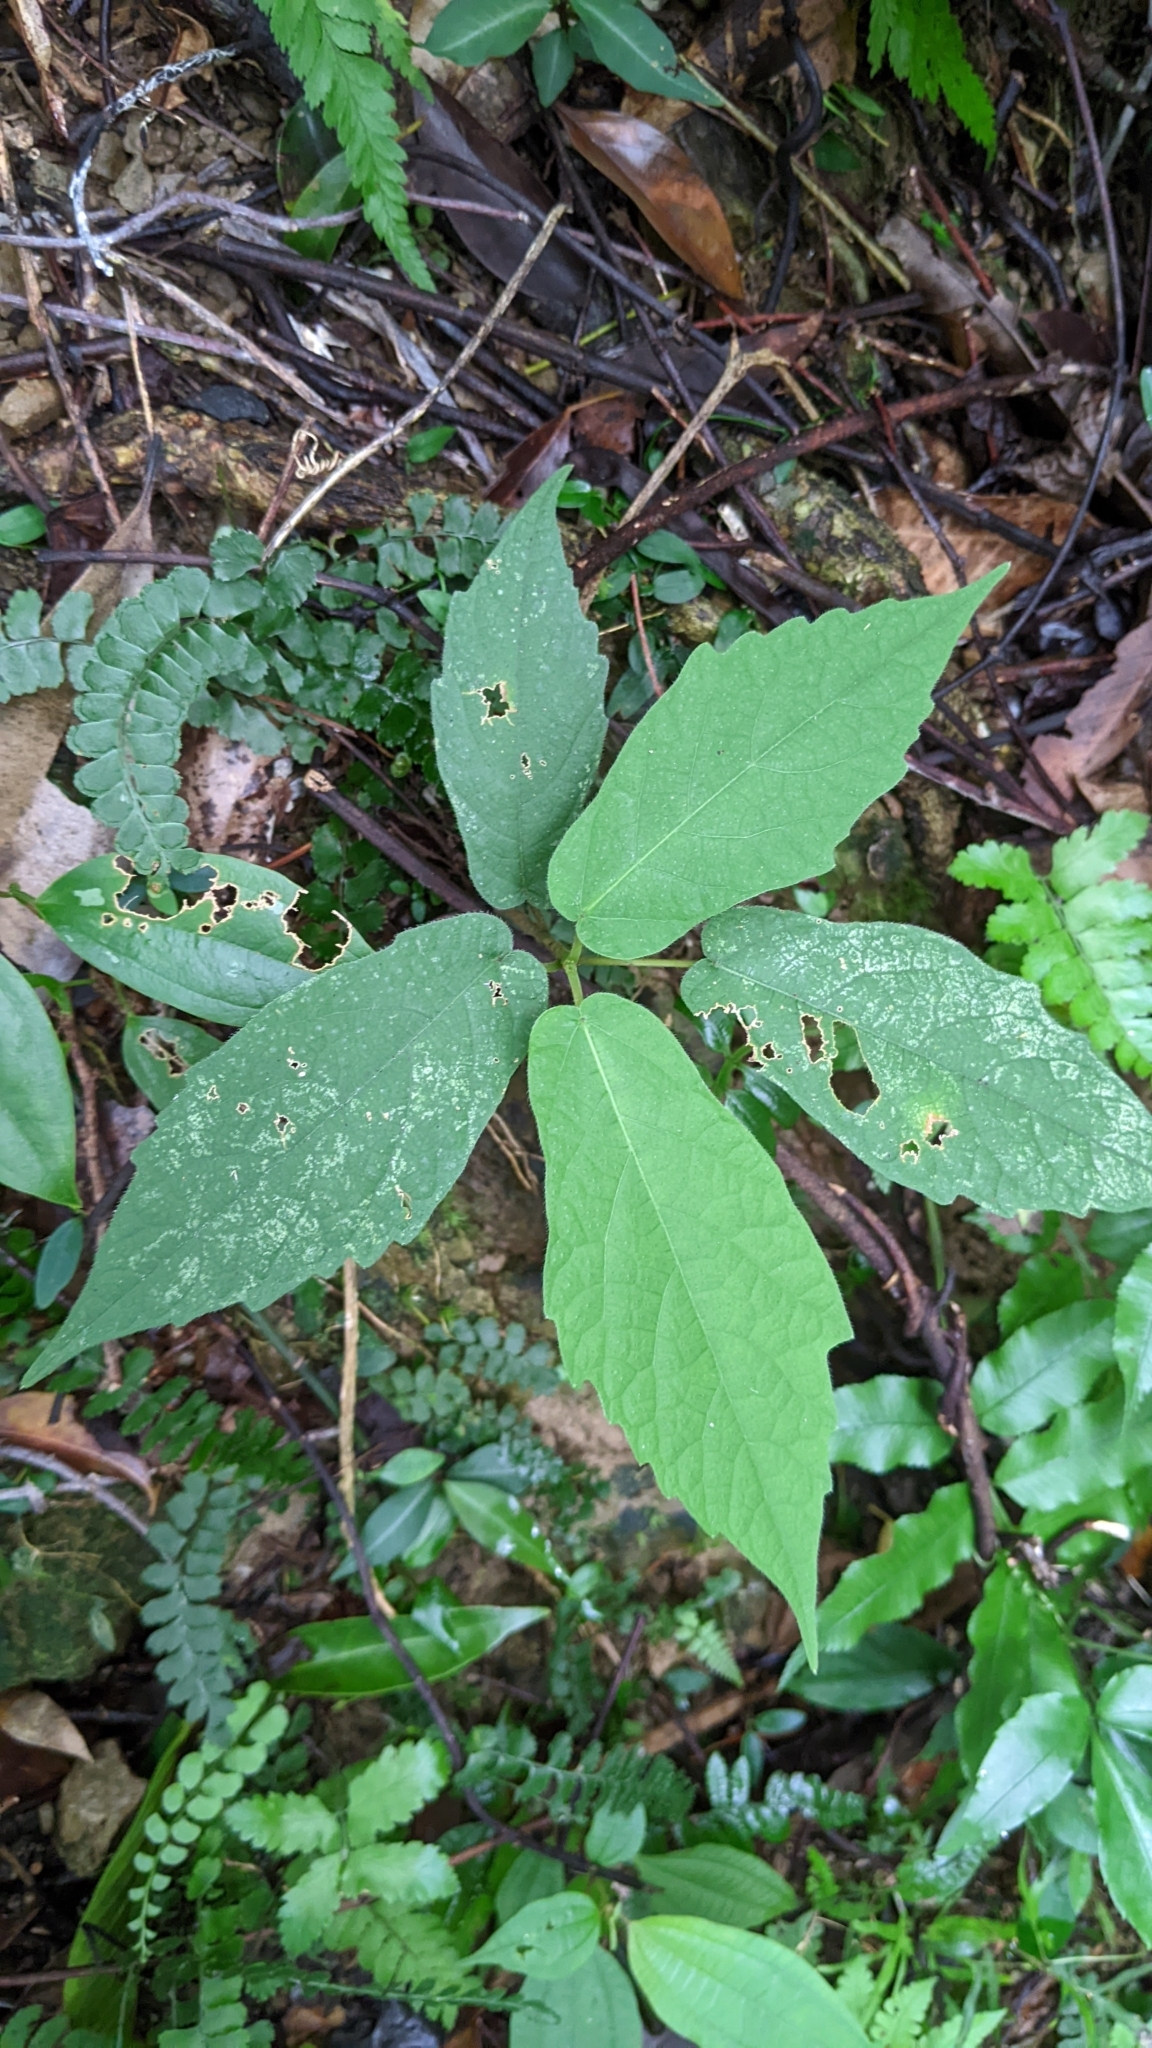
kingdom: Plantae
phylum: Tracheophyta
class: Magnoliopsida
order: Rosales
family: Moraceae
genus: Ficus
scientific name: Ficus erecta
